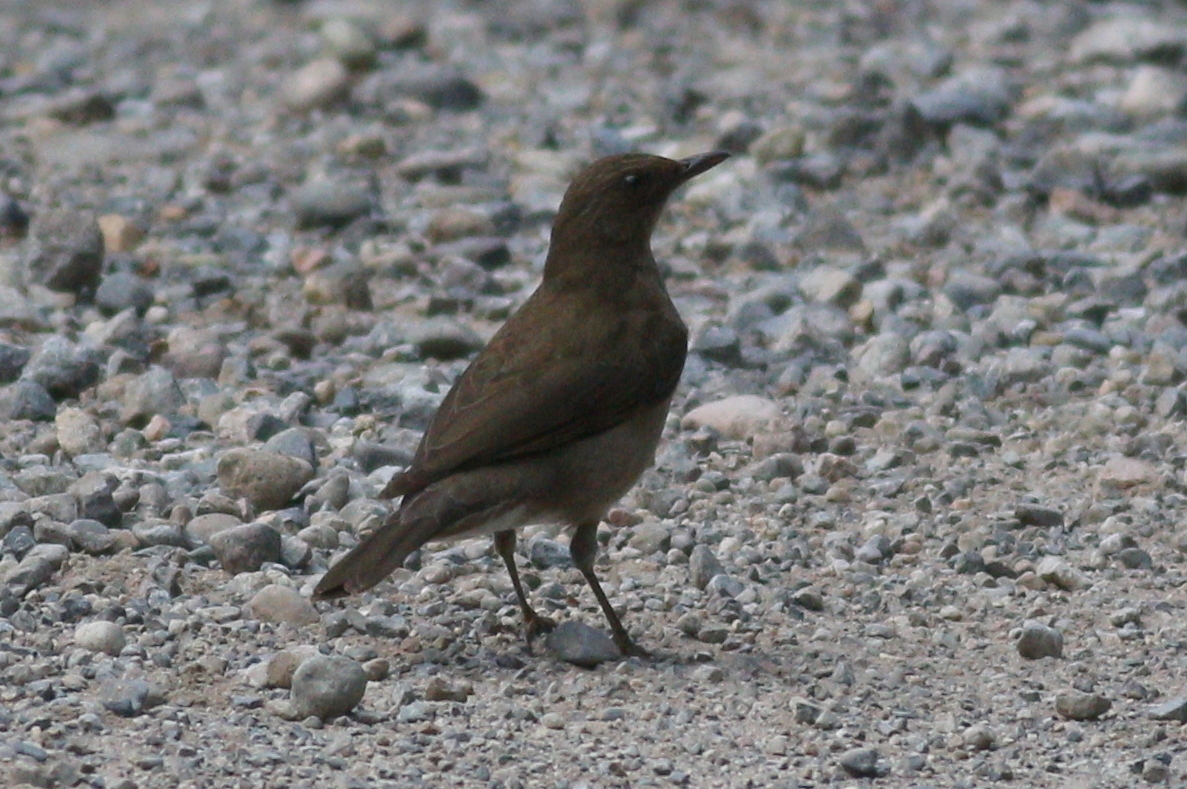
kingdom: Animalia
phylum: Chordata
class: Aves
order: Passeriformes
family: Turdidae
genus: Turdus
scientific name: Turdus ignobilis
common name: Black-billed thrush
